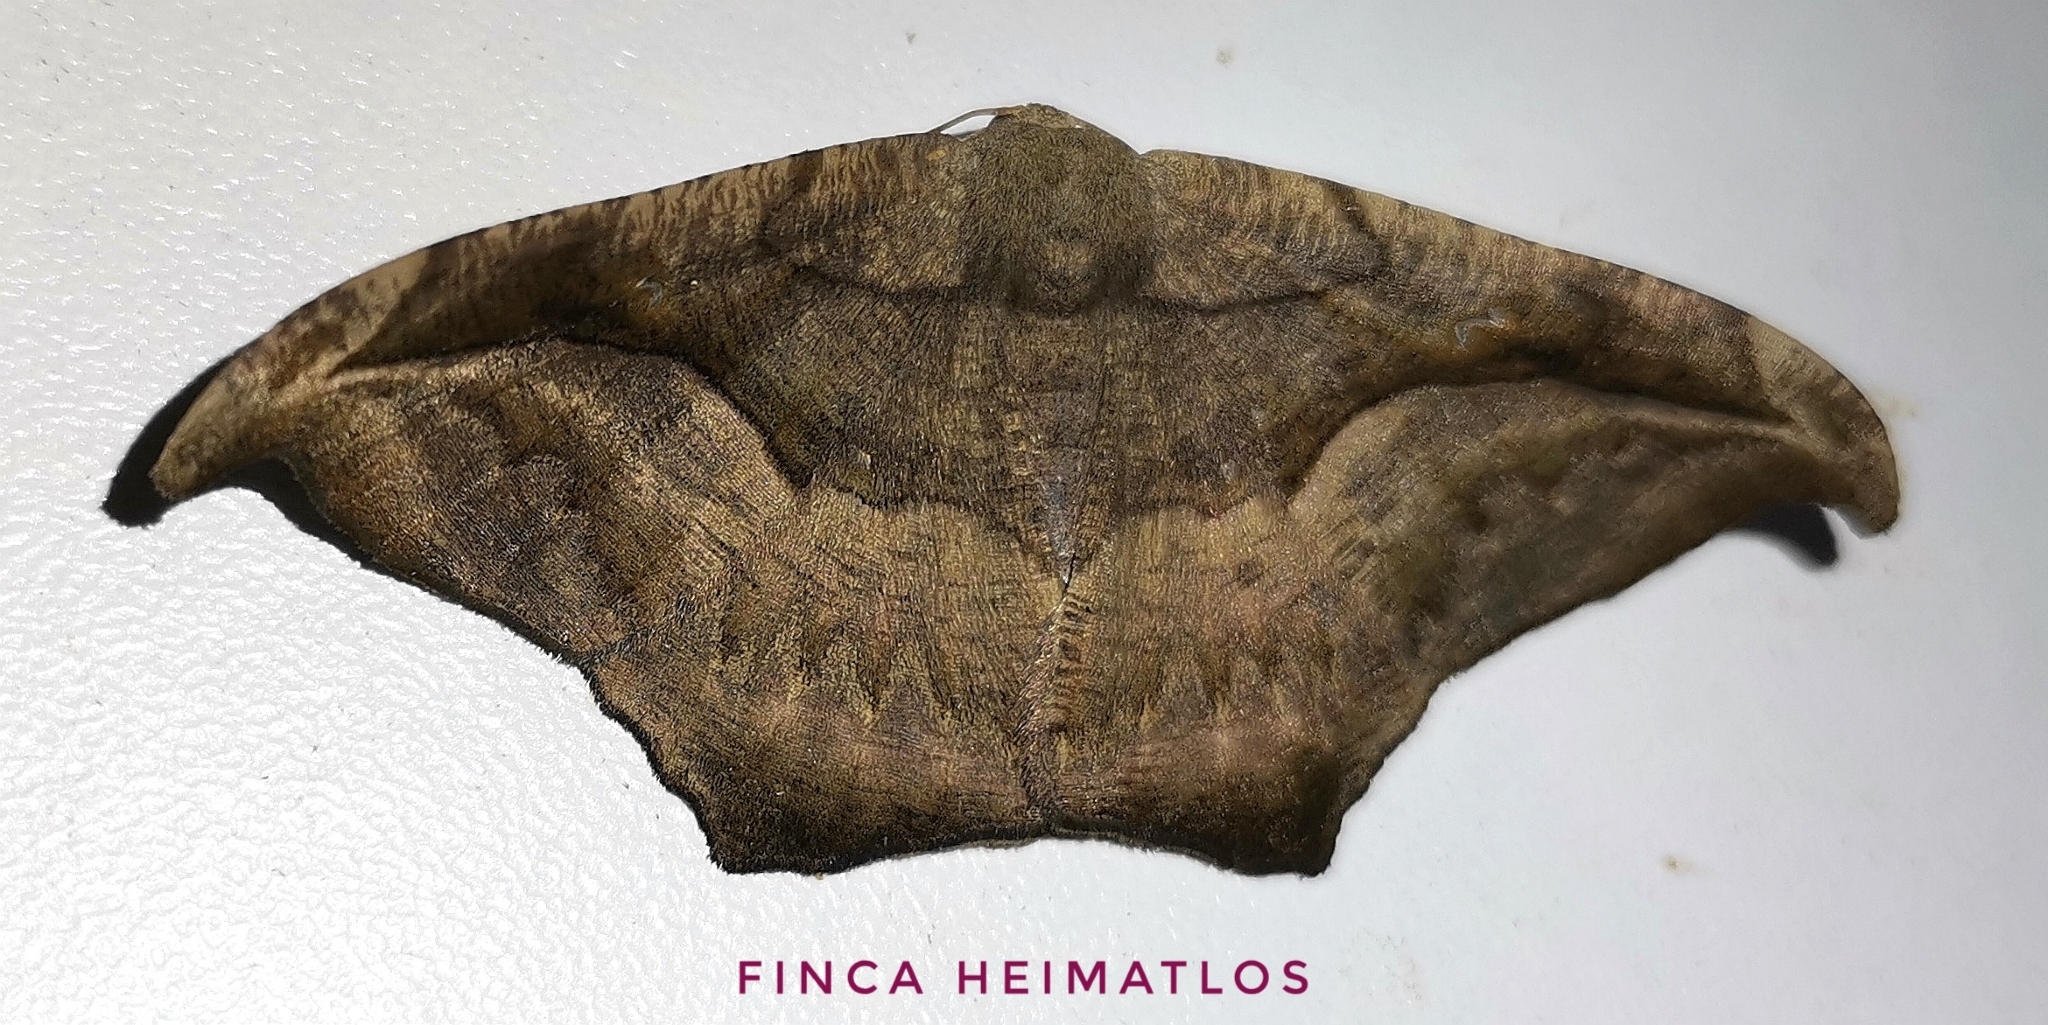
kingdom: Animalia
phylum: Arthropoda
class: Insecta
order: Lepidoptera
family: Geometridae
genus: Oxydia
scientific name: Oxydia scriptipennaria
